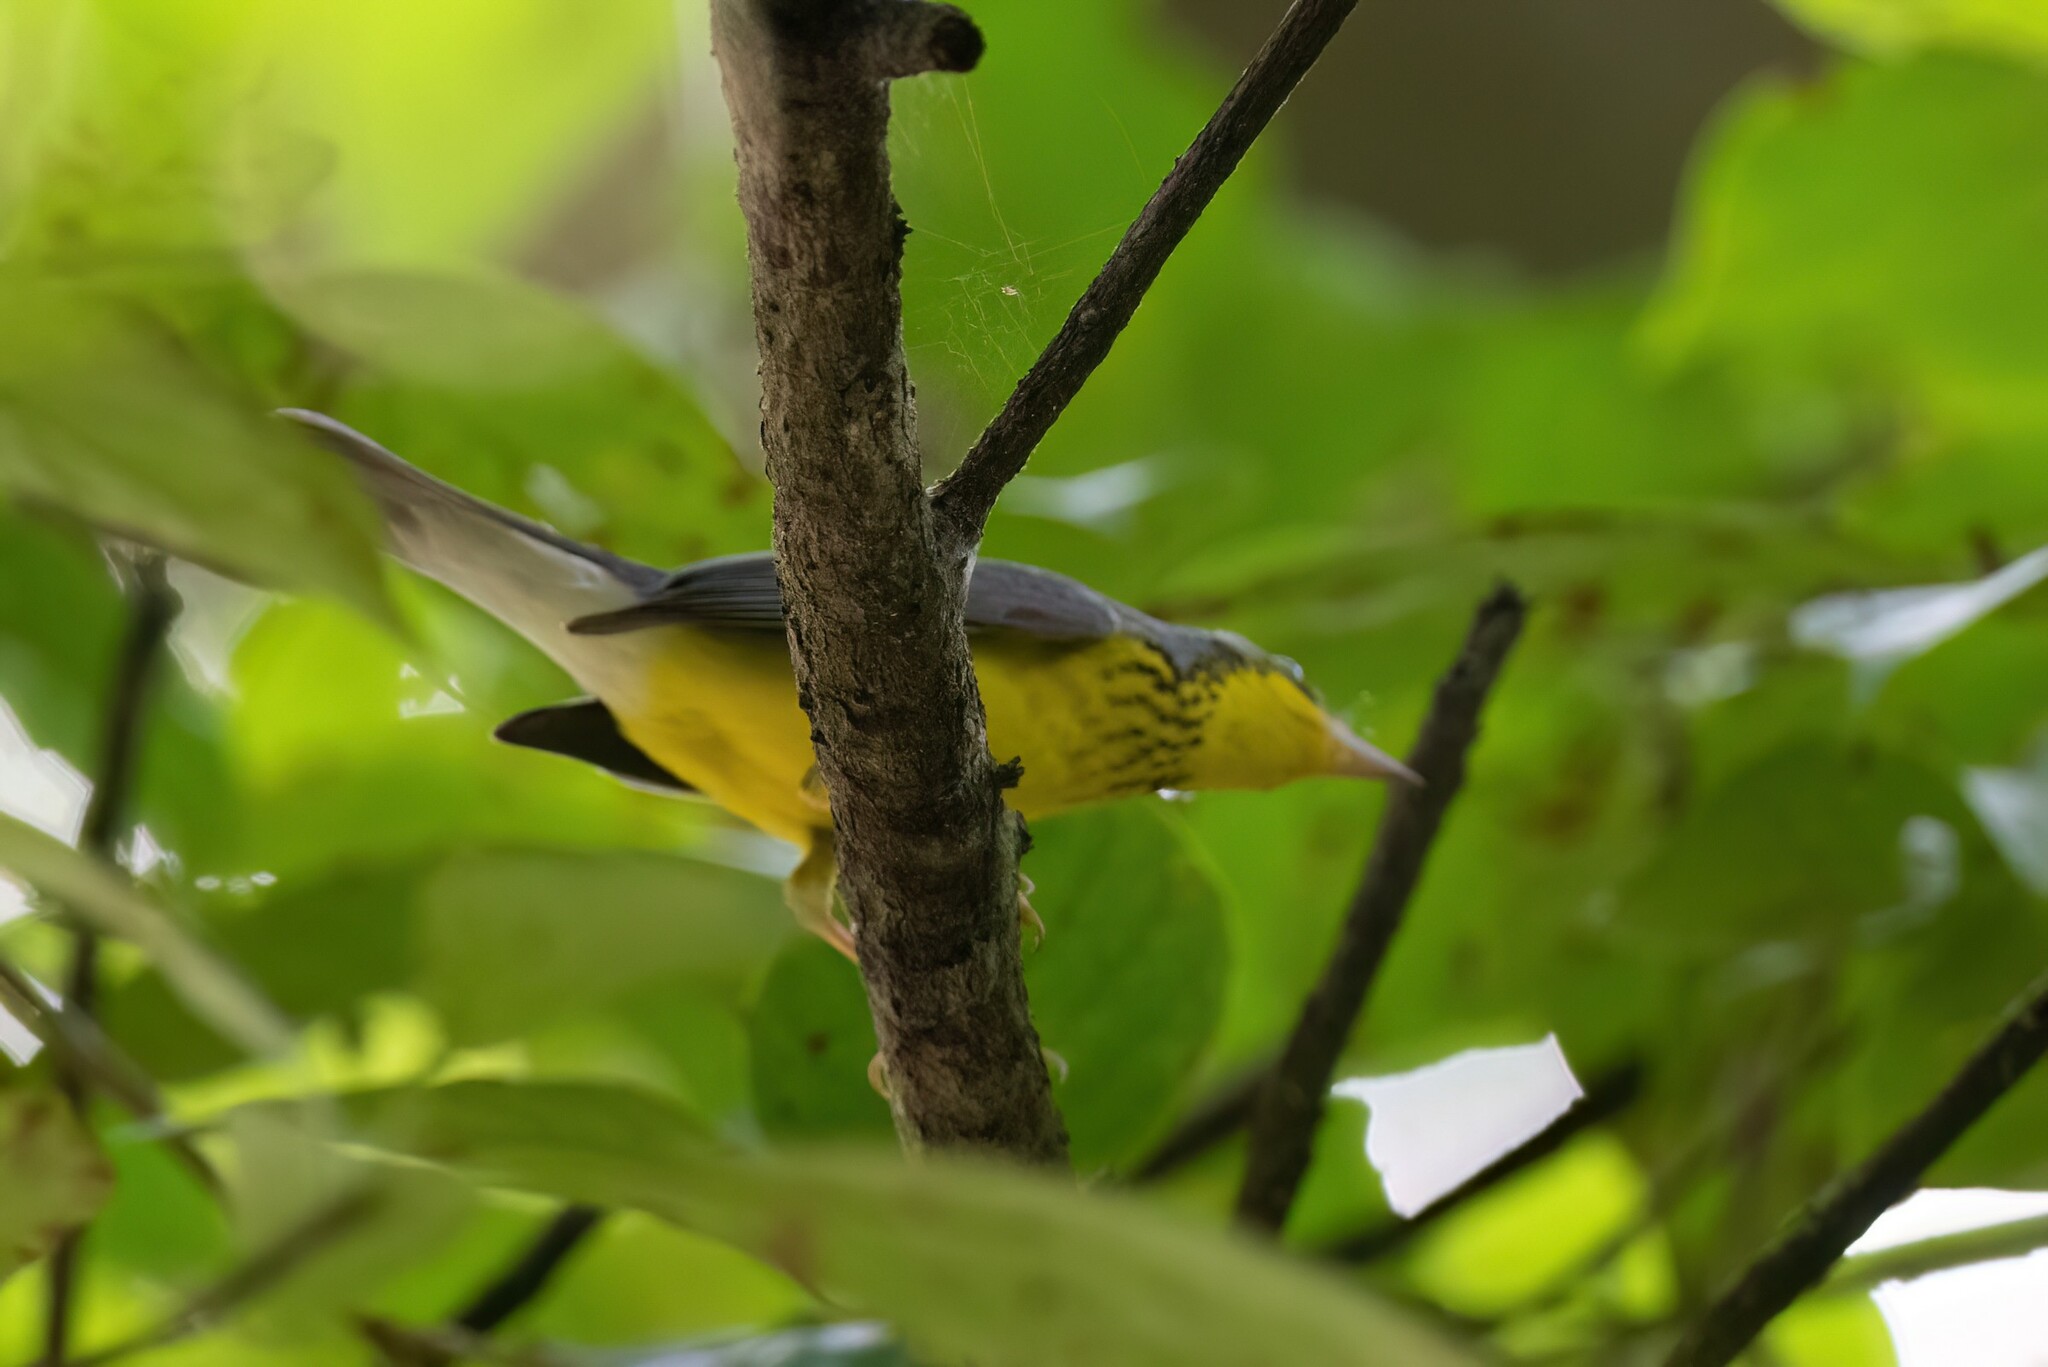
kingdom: Animalia
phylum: Chordata
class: Aves
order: Passeriformes
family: Parulidae
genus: Cardellina
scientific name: Cardellina canadensis
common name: Canada warbler
